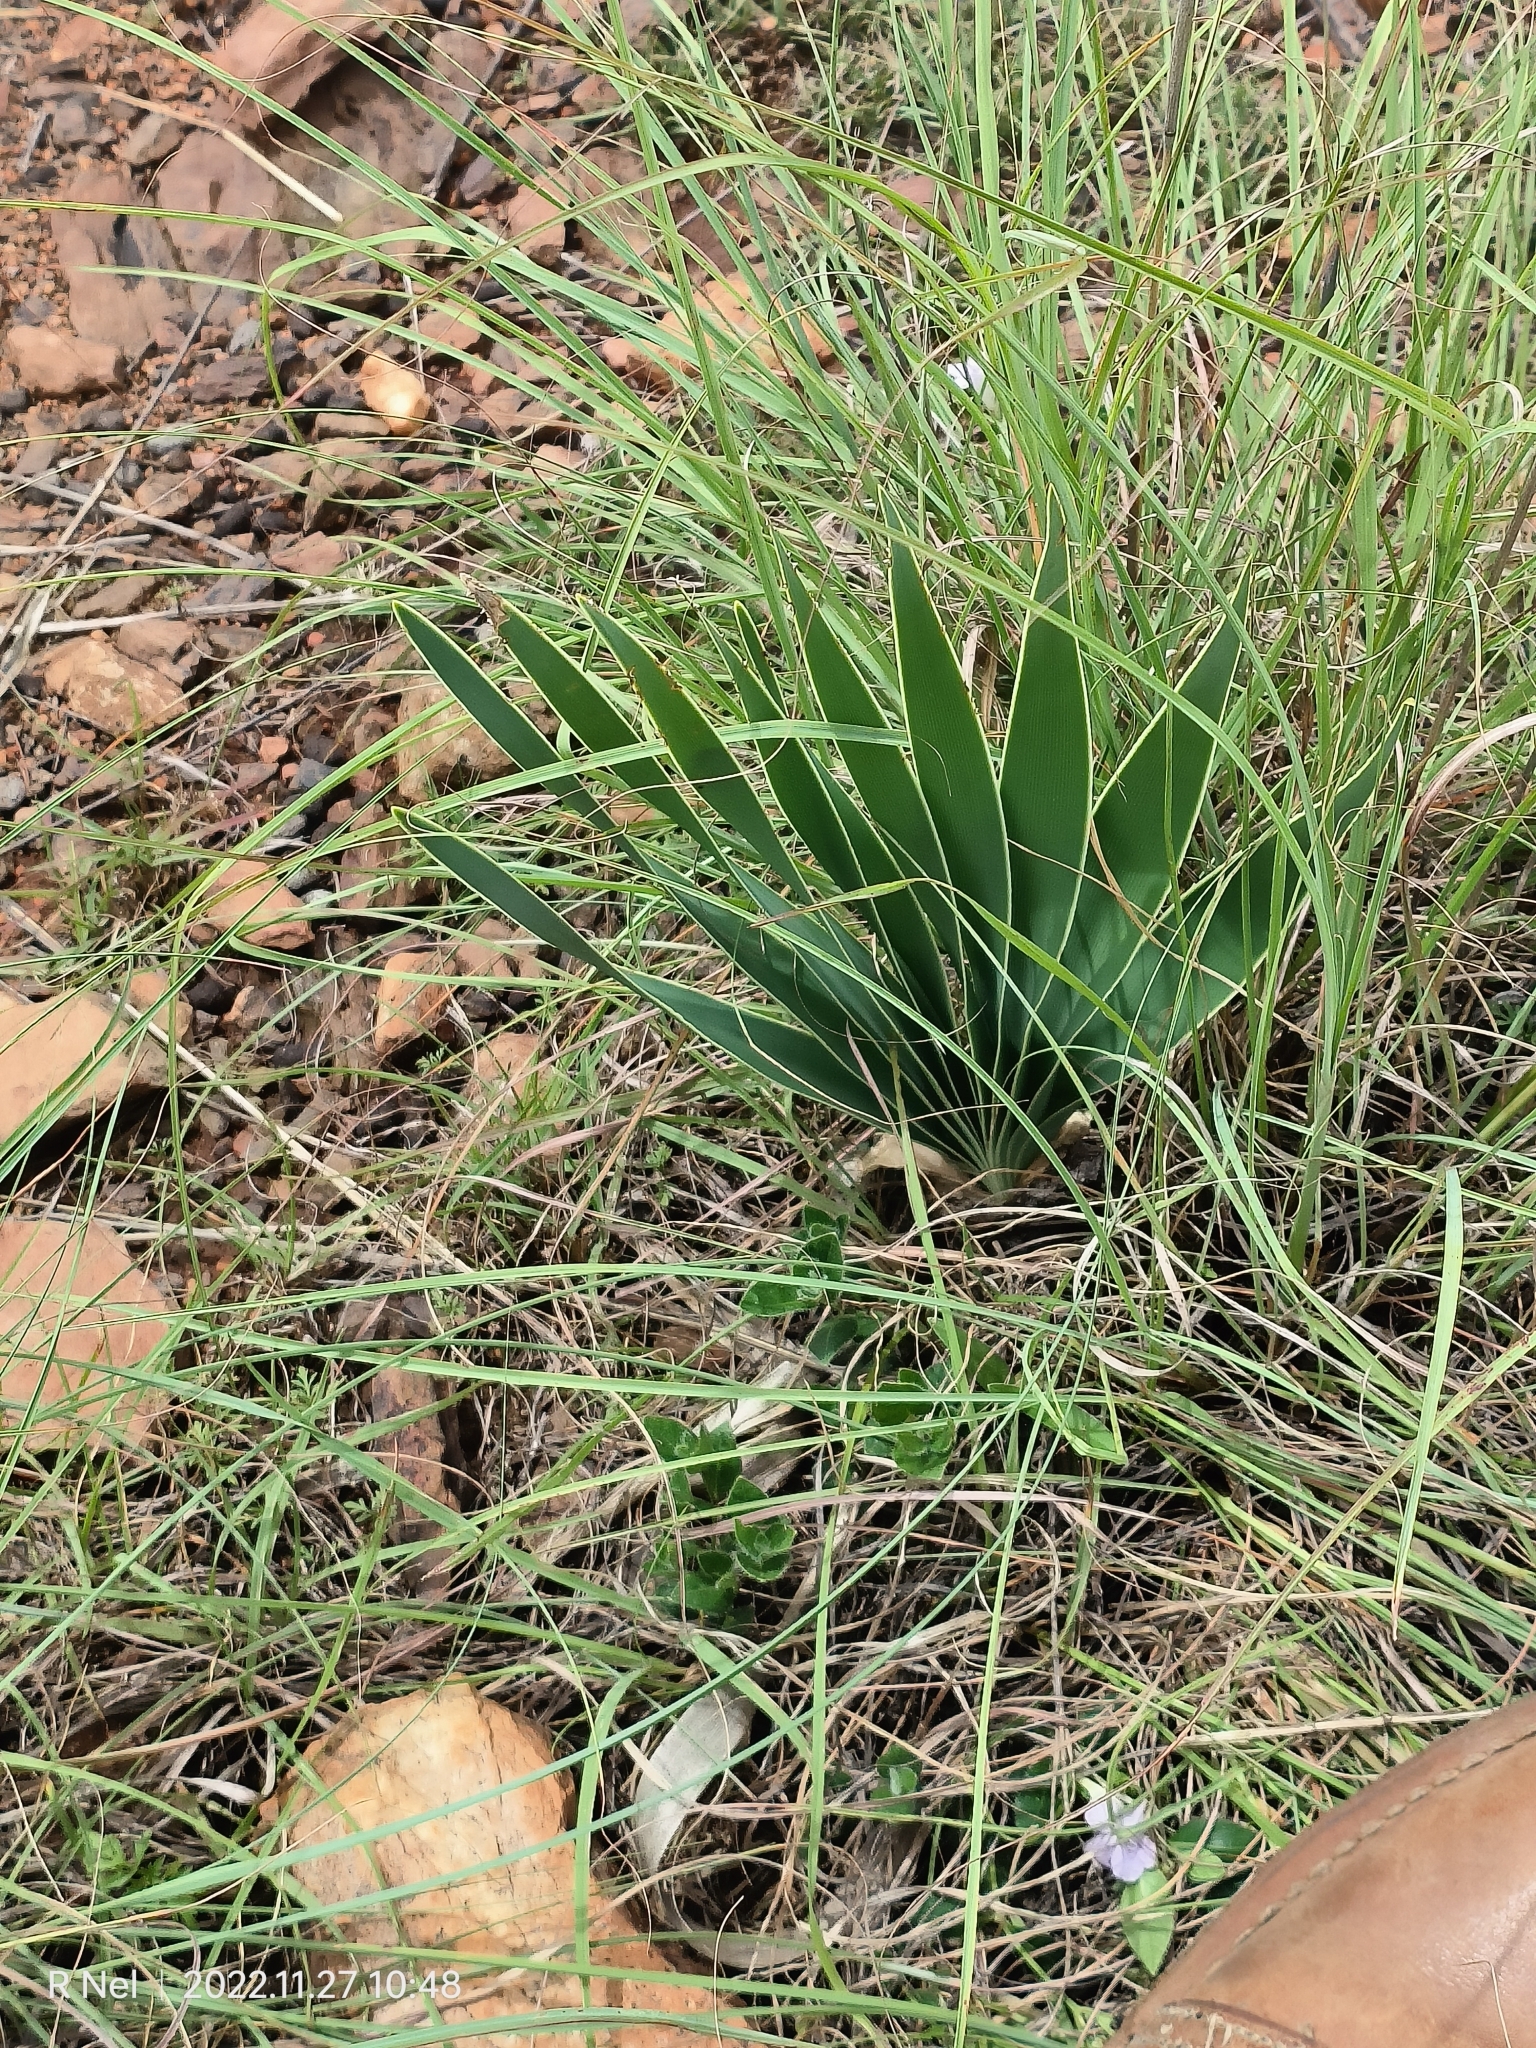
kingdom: Plantae
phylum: Tracheophyta
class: Liliopsida
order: Asparagales
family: Amaryllidaceae
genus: Boophone
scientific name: Boophone disticha
